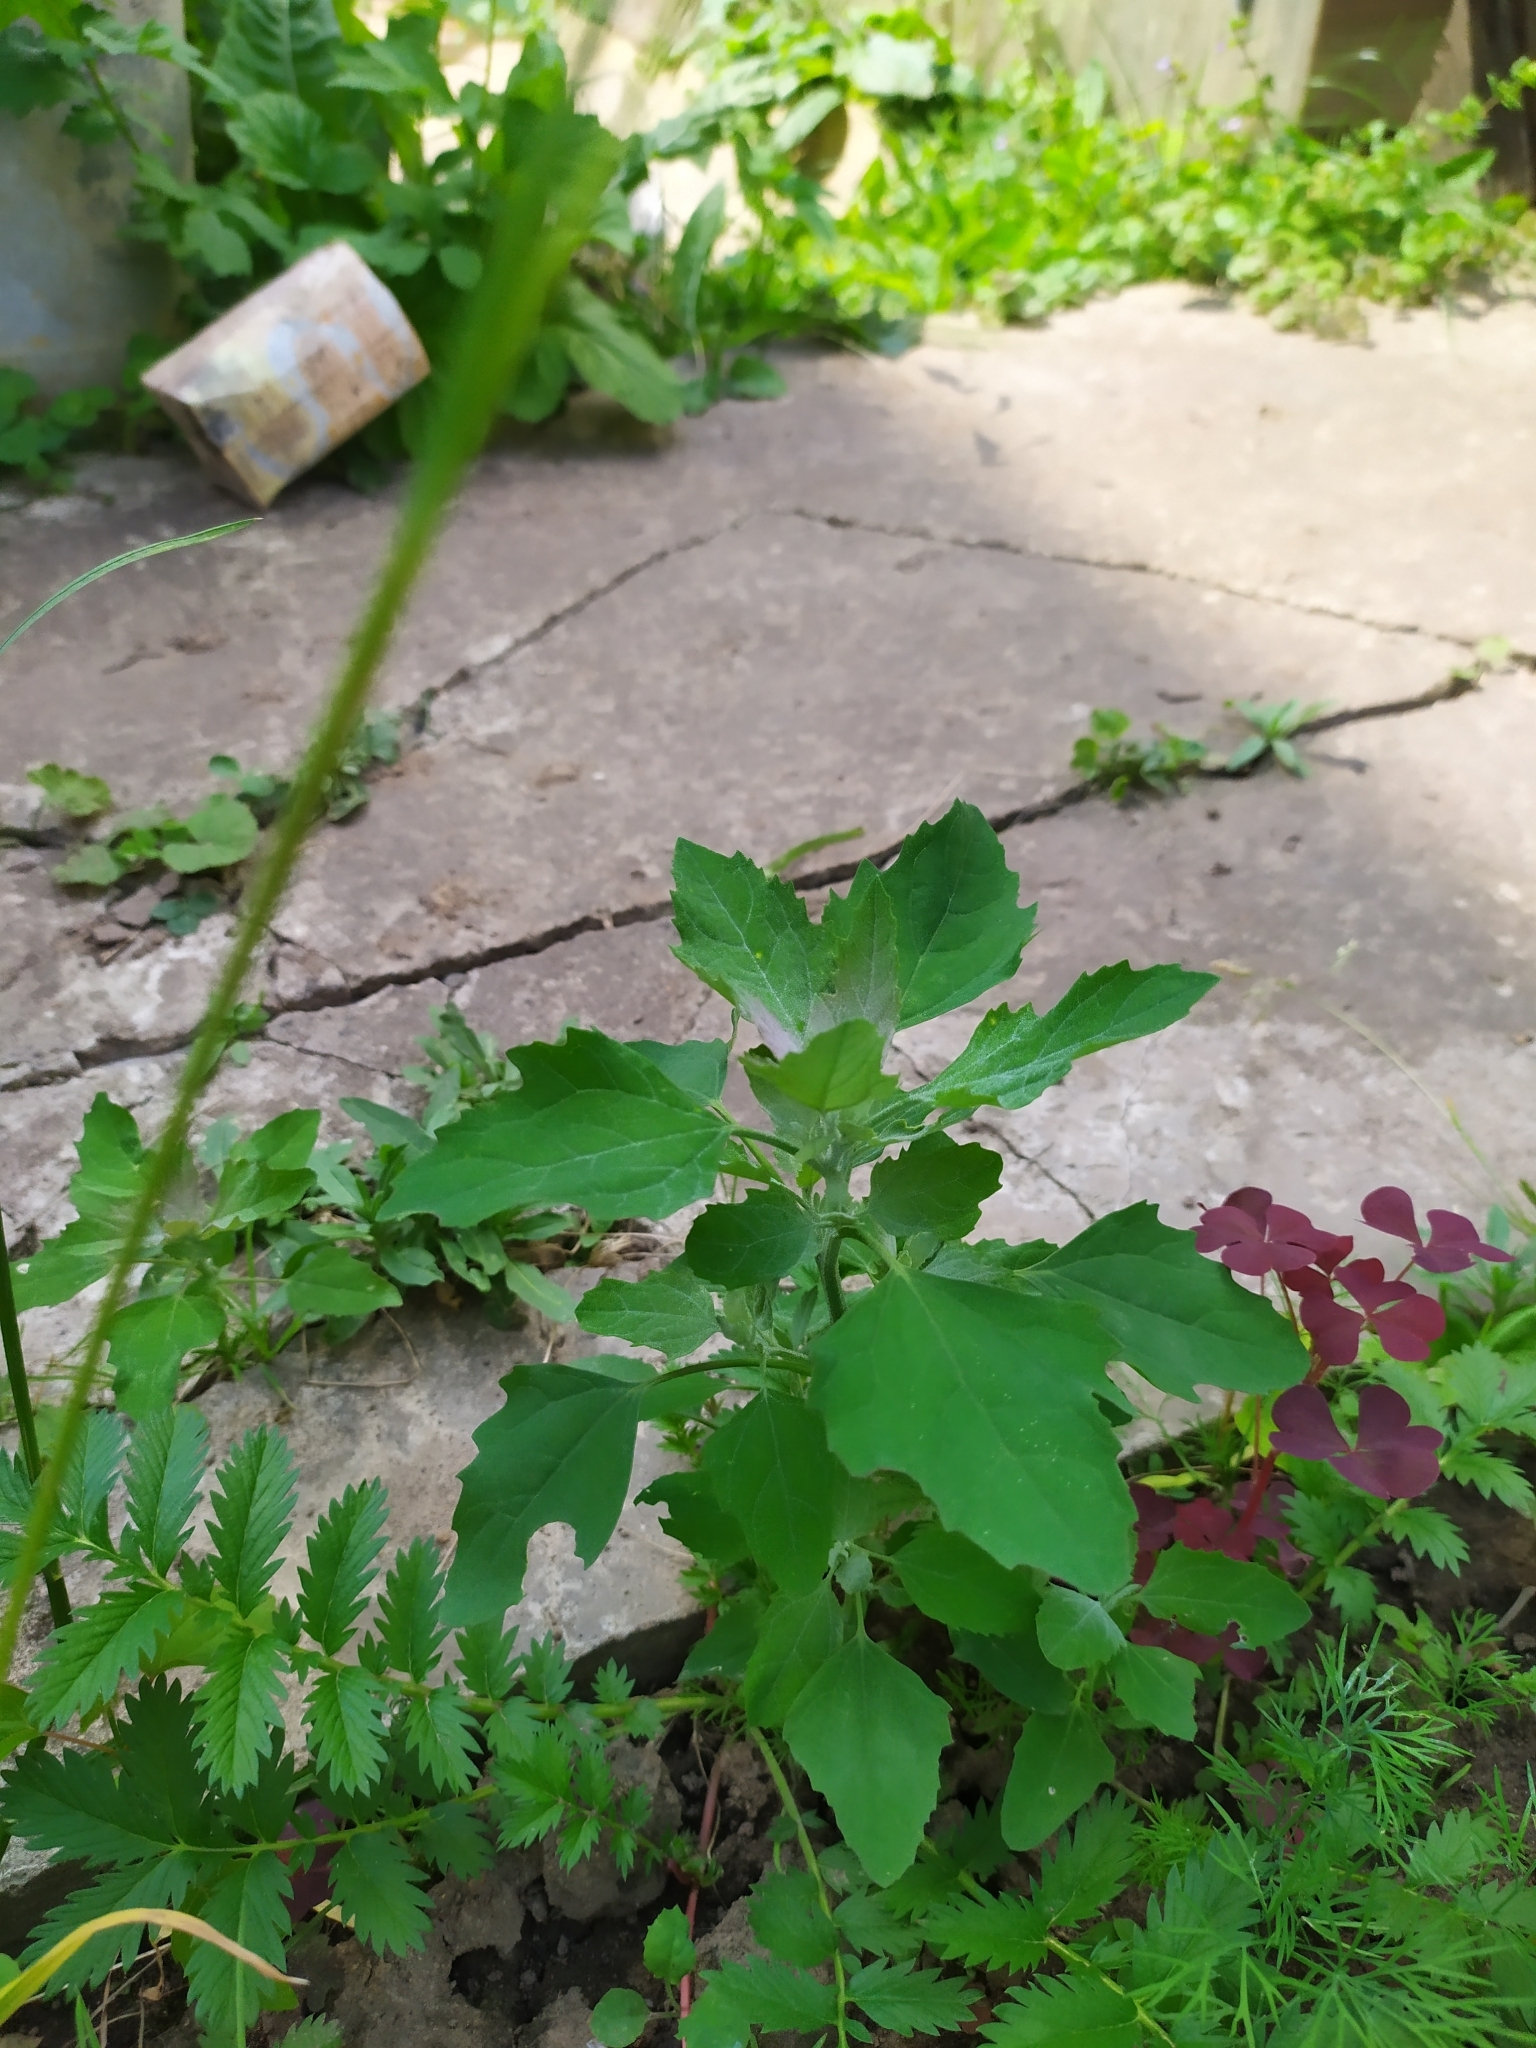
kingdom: Plantae
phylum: Tracheophyta
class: Magnoliopsida
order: Caryophyllales
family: Amaranthaceae
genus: Chenopodium
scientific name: Chenopodium album
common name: Fat-hen
